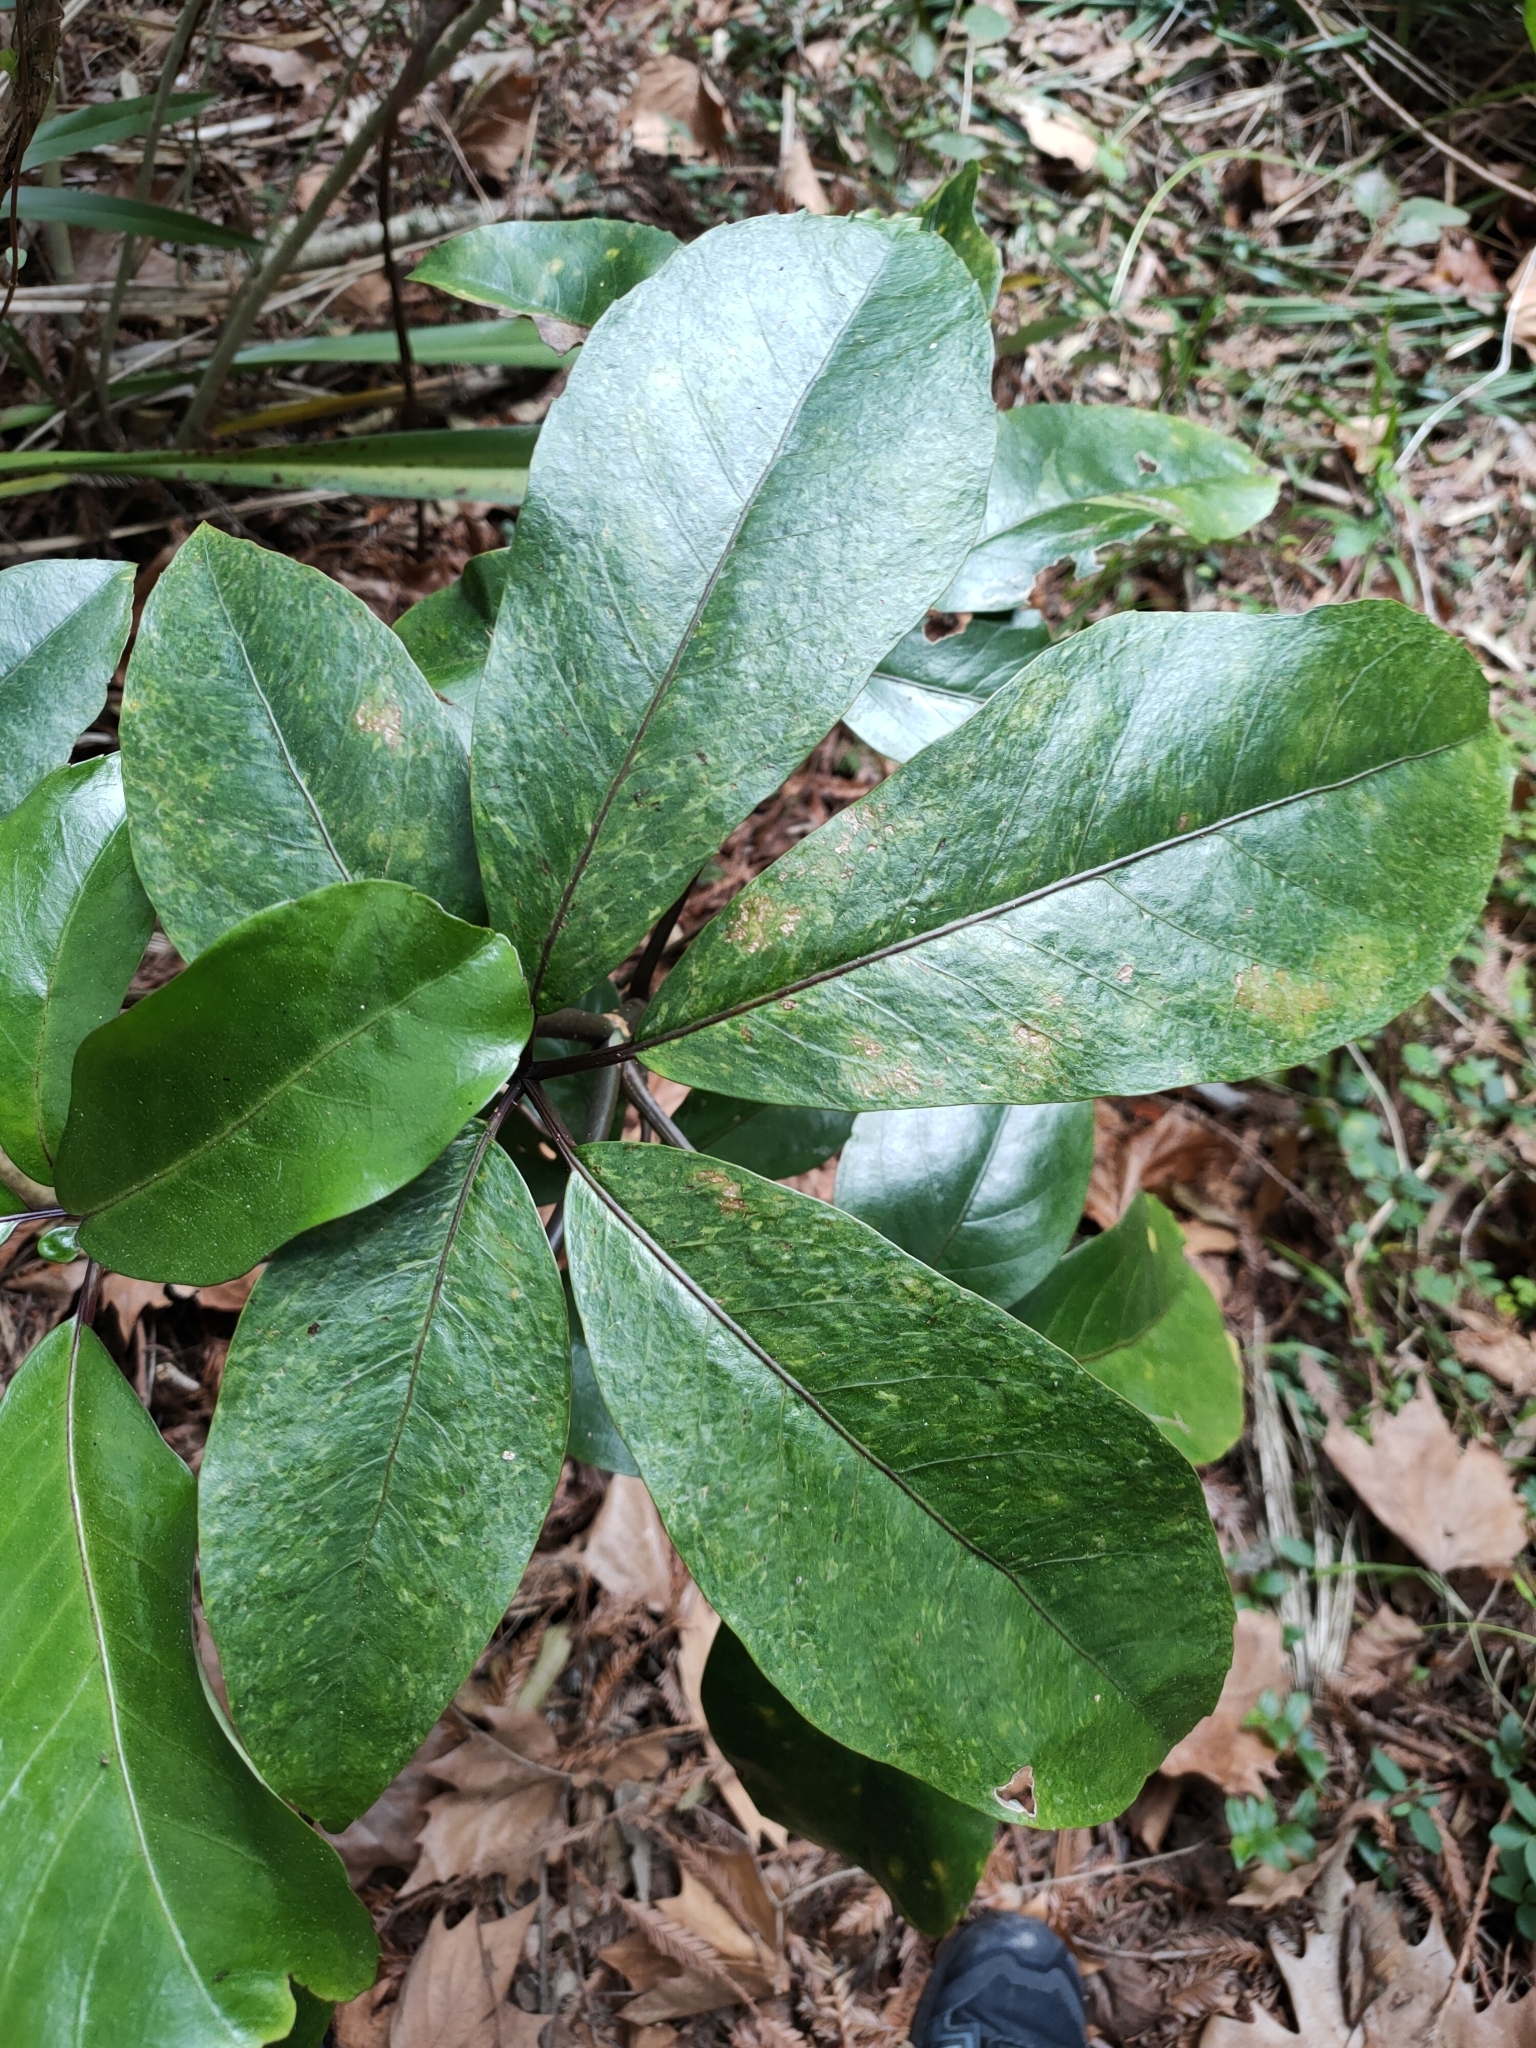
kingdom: Plantae
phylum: Tracheophyta
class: Magnoliopsida
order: Apiales
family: Araliaceae
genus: Neopanax
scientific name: Neopanax laetus
